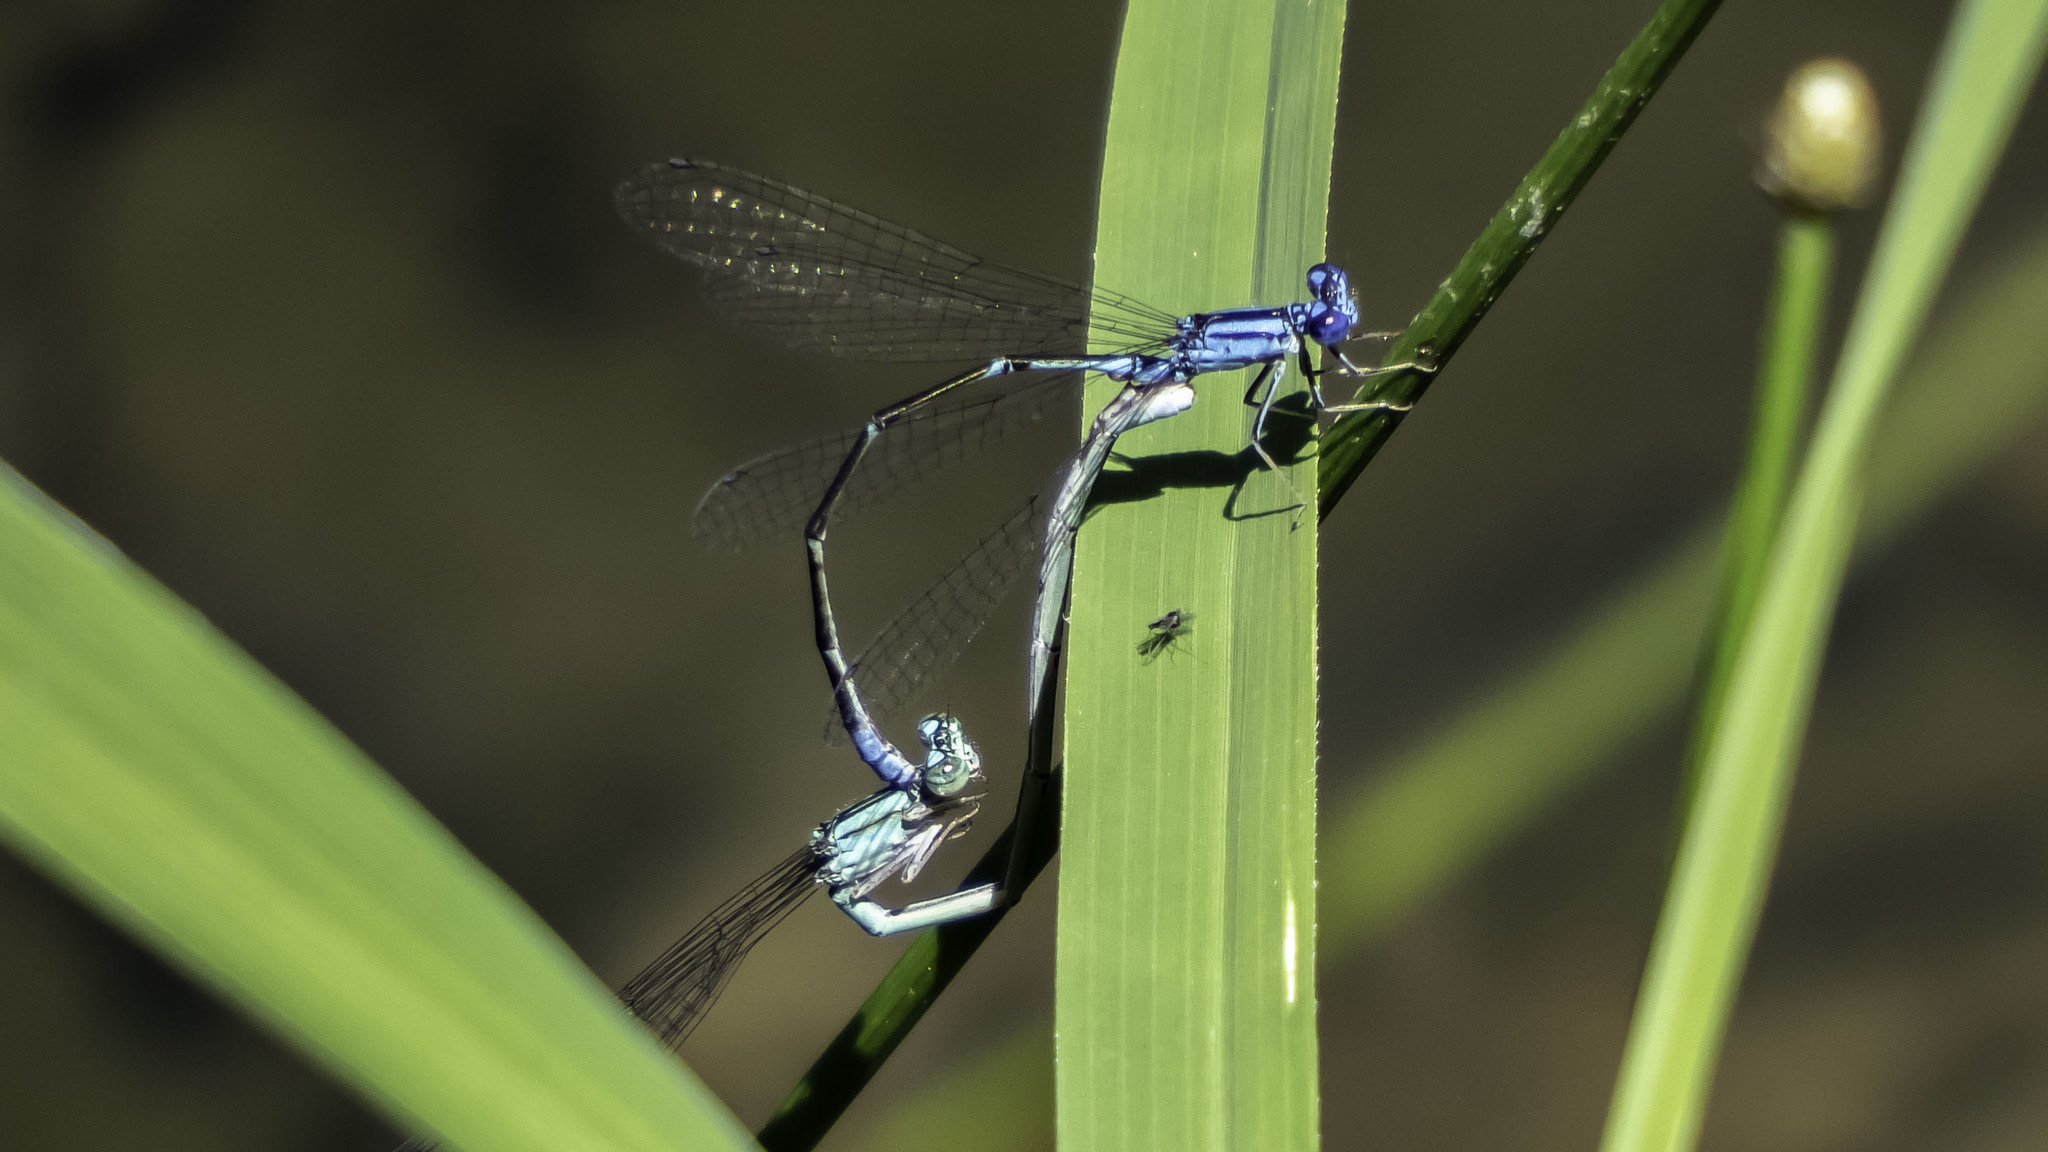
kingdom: Animalia
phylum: Arthropoda
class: Insecta
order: Odonata
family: Coenagrionidae
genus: Enallagma
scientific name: Enallagma traviatum
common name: Slender bluet
